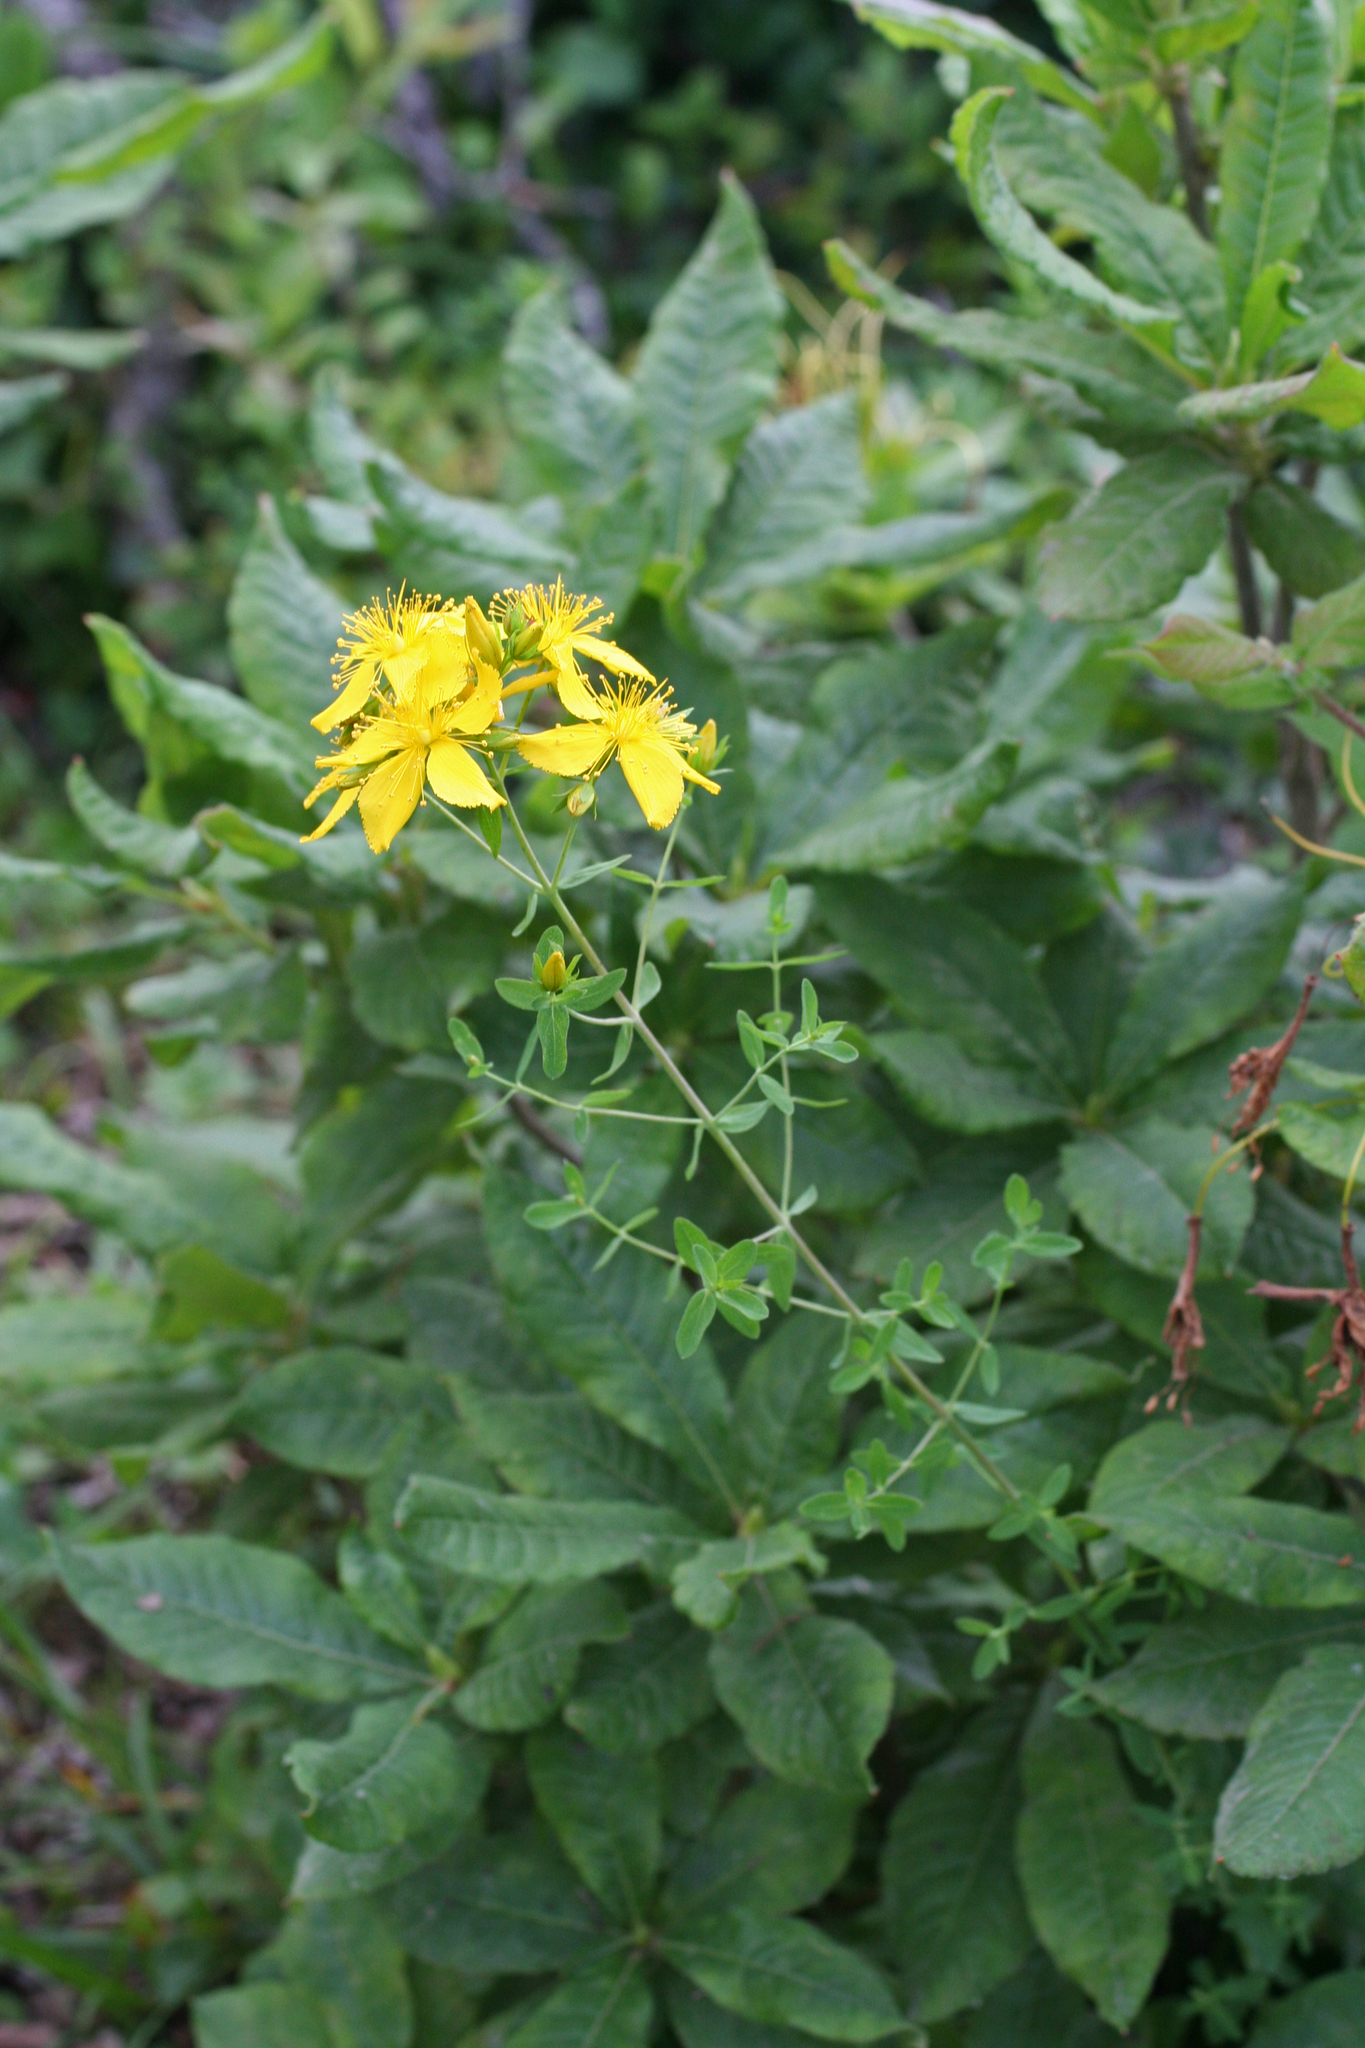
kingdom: Plantae
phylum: Tracheophyta
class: Magnoliopsida
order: Malpighiales
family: Hypericaceae
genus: Hypericum
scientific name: Hypericum perforatum
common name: Common st. johnswort
